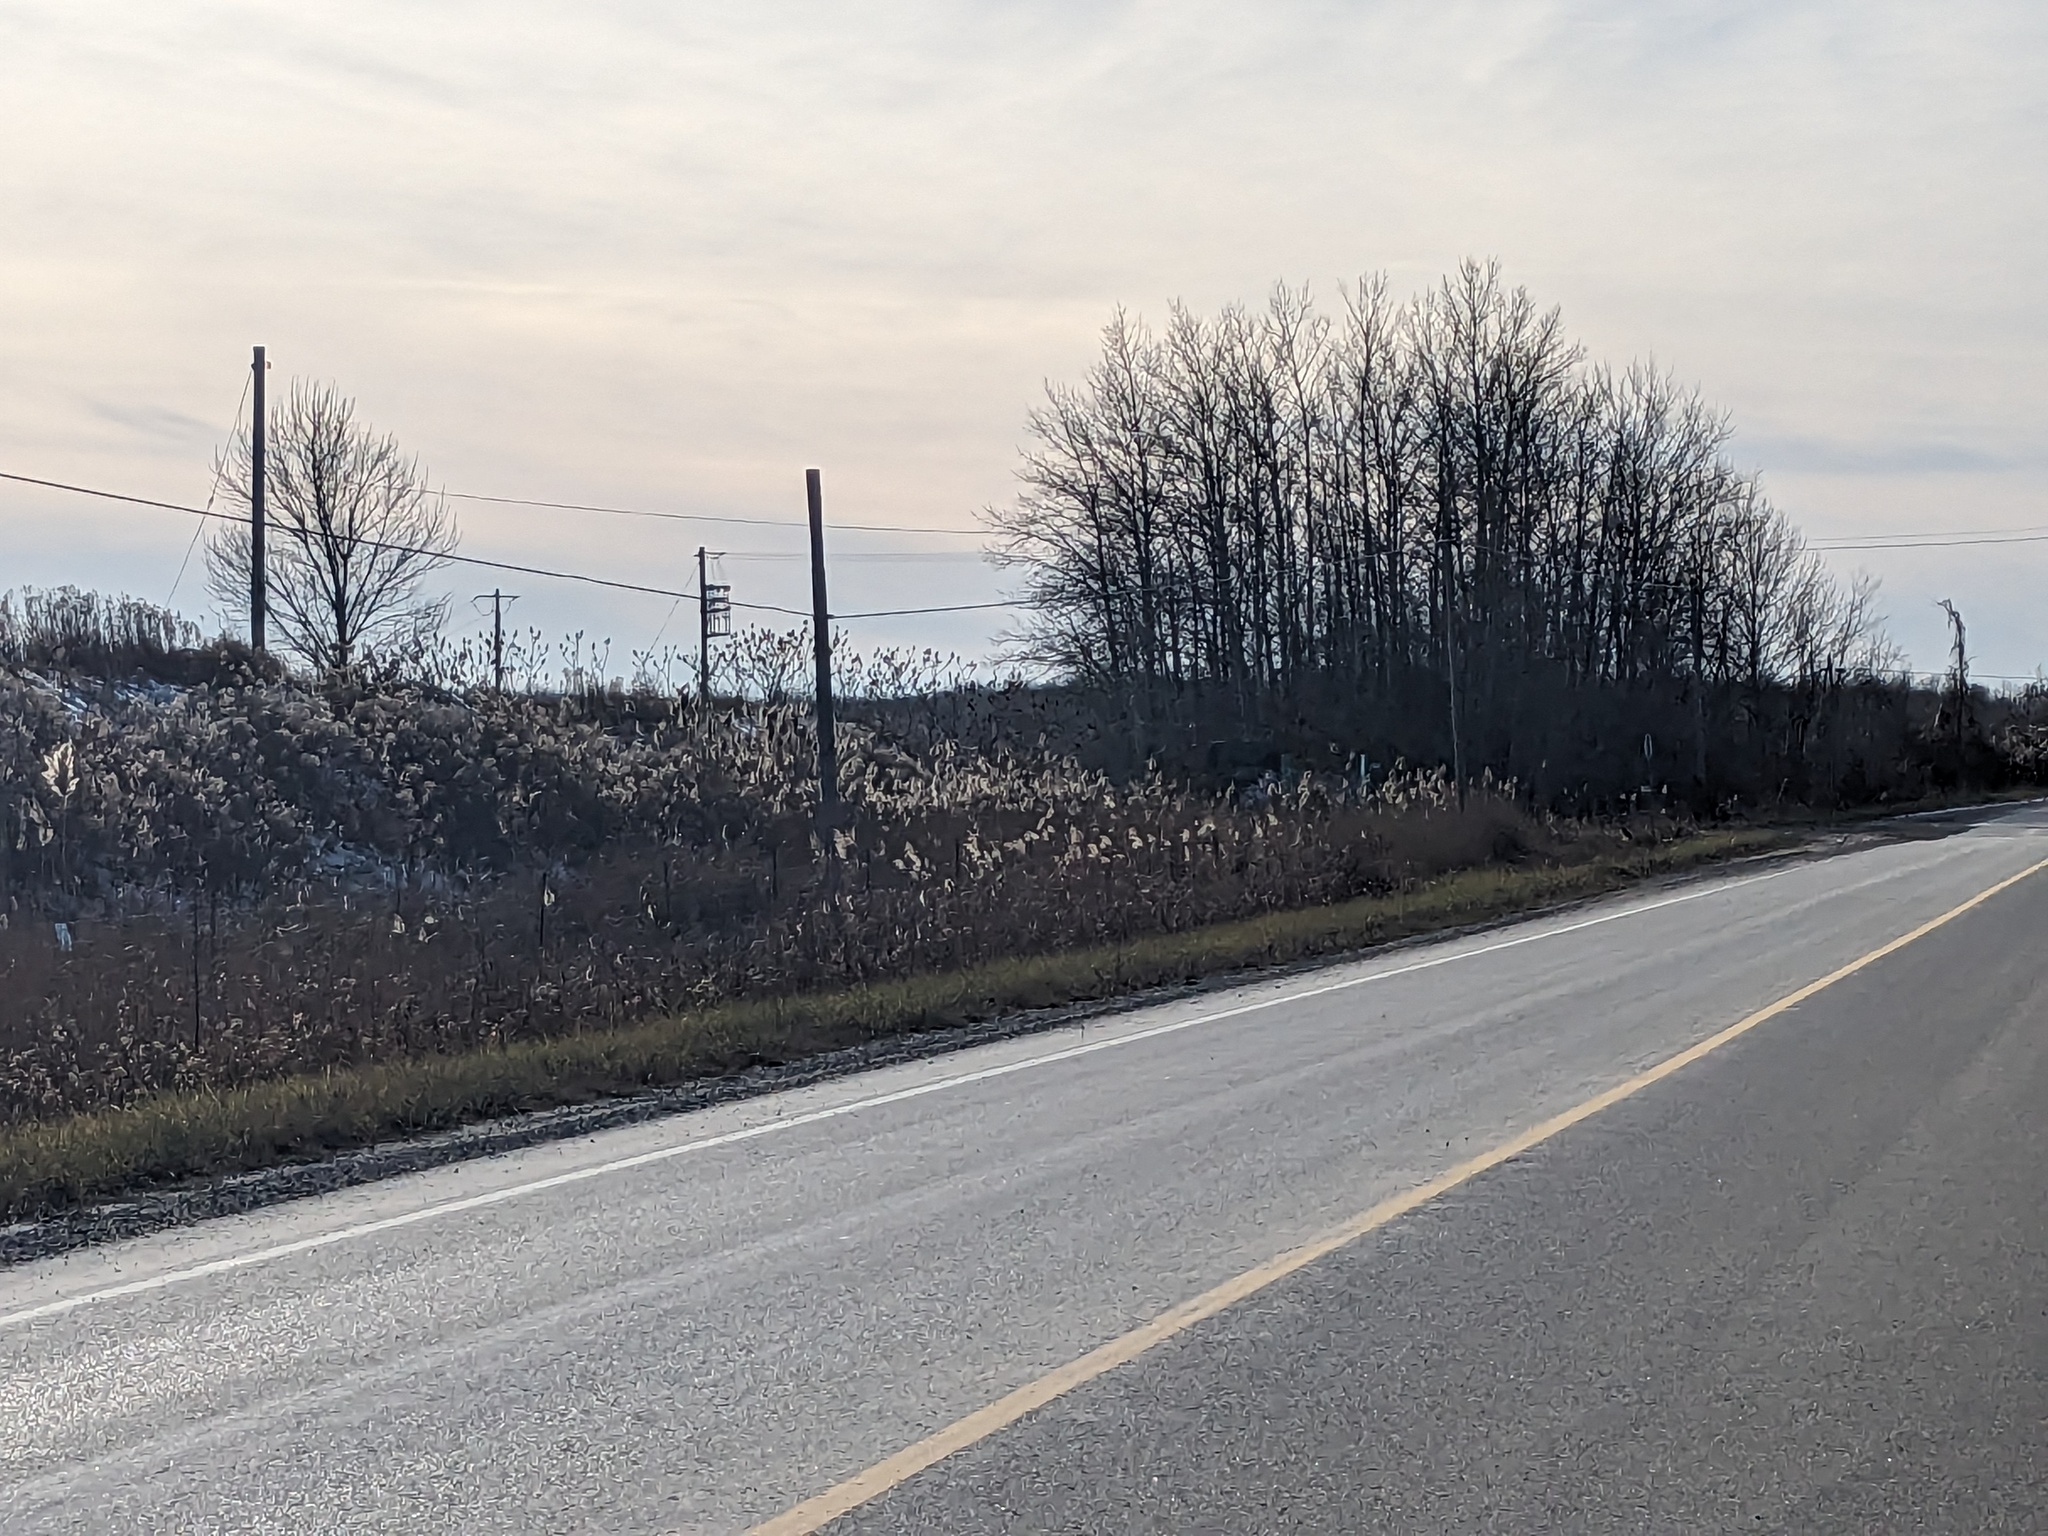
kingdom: Plantae
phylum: Tracheophyta
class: Liliopsida
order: Poales
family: Poaceae
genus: Phragmites
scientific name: Phragmites australis
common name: Common reed
